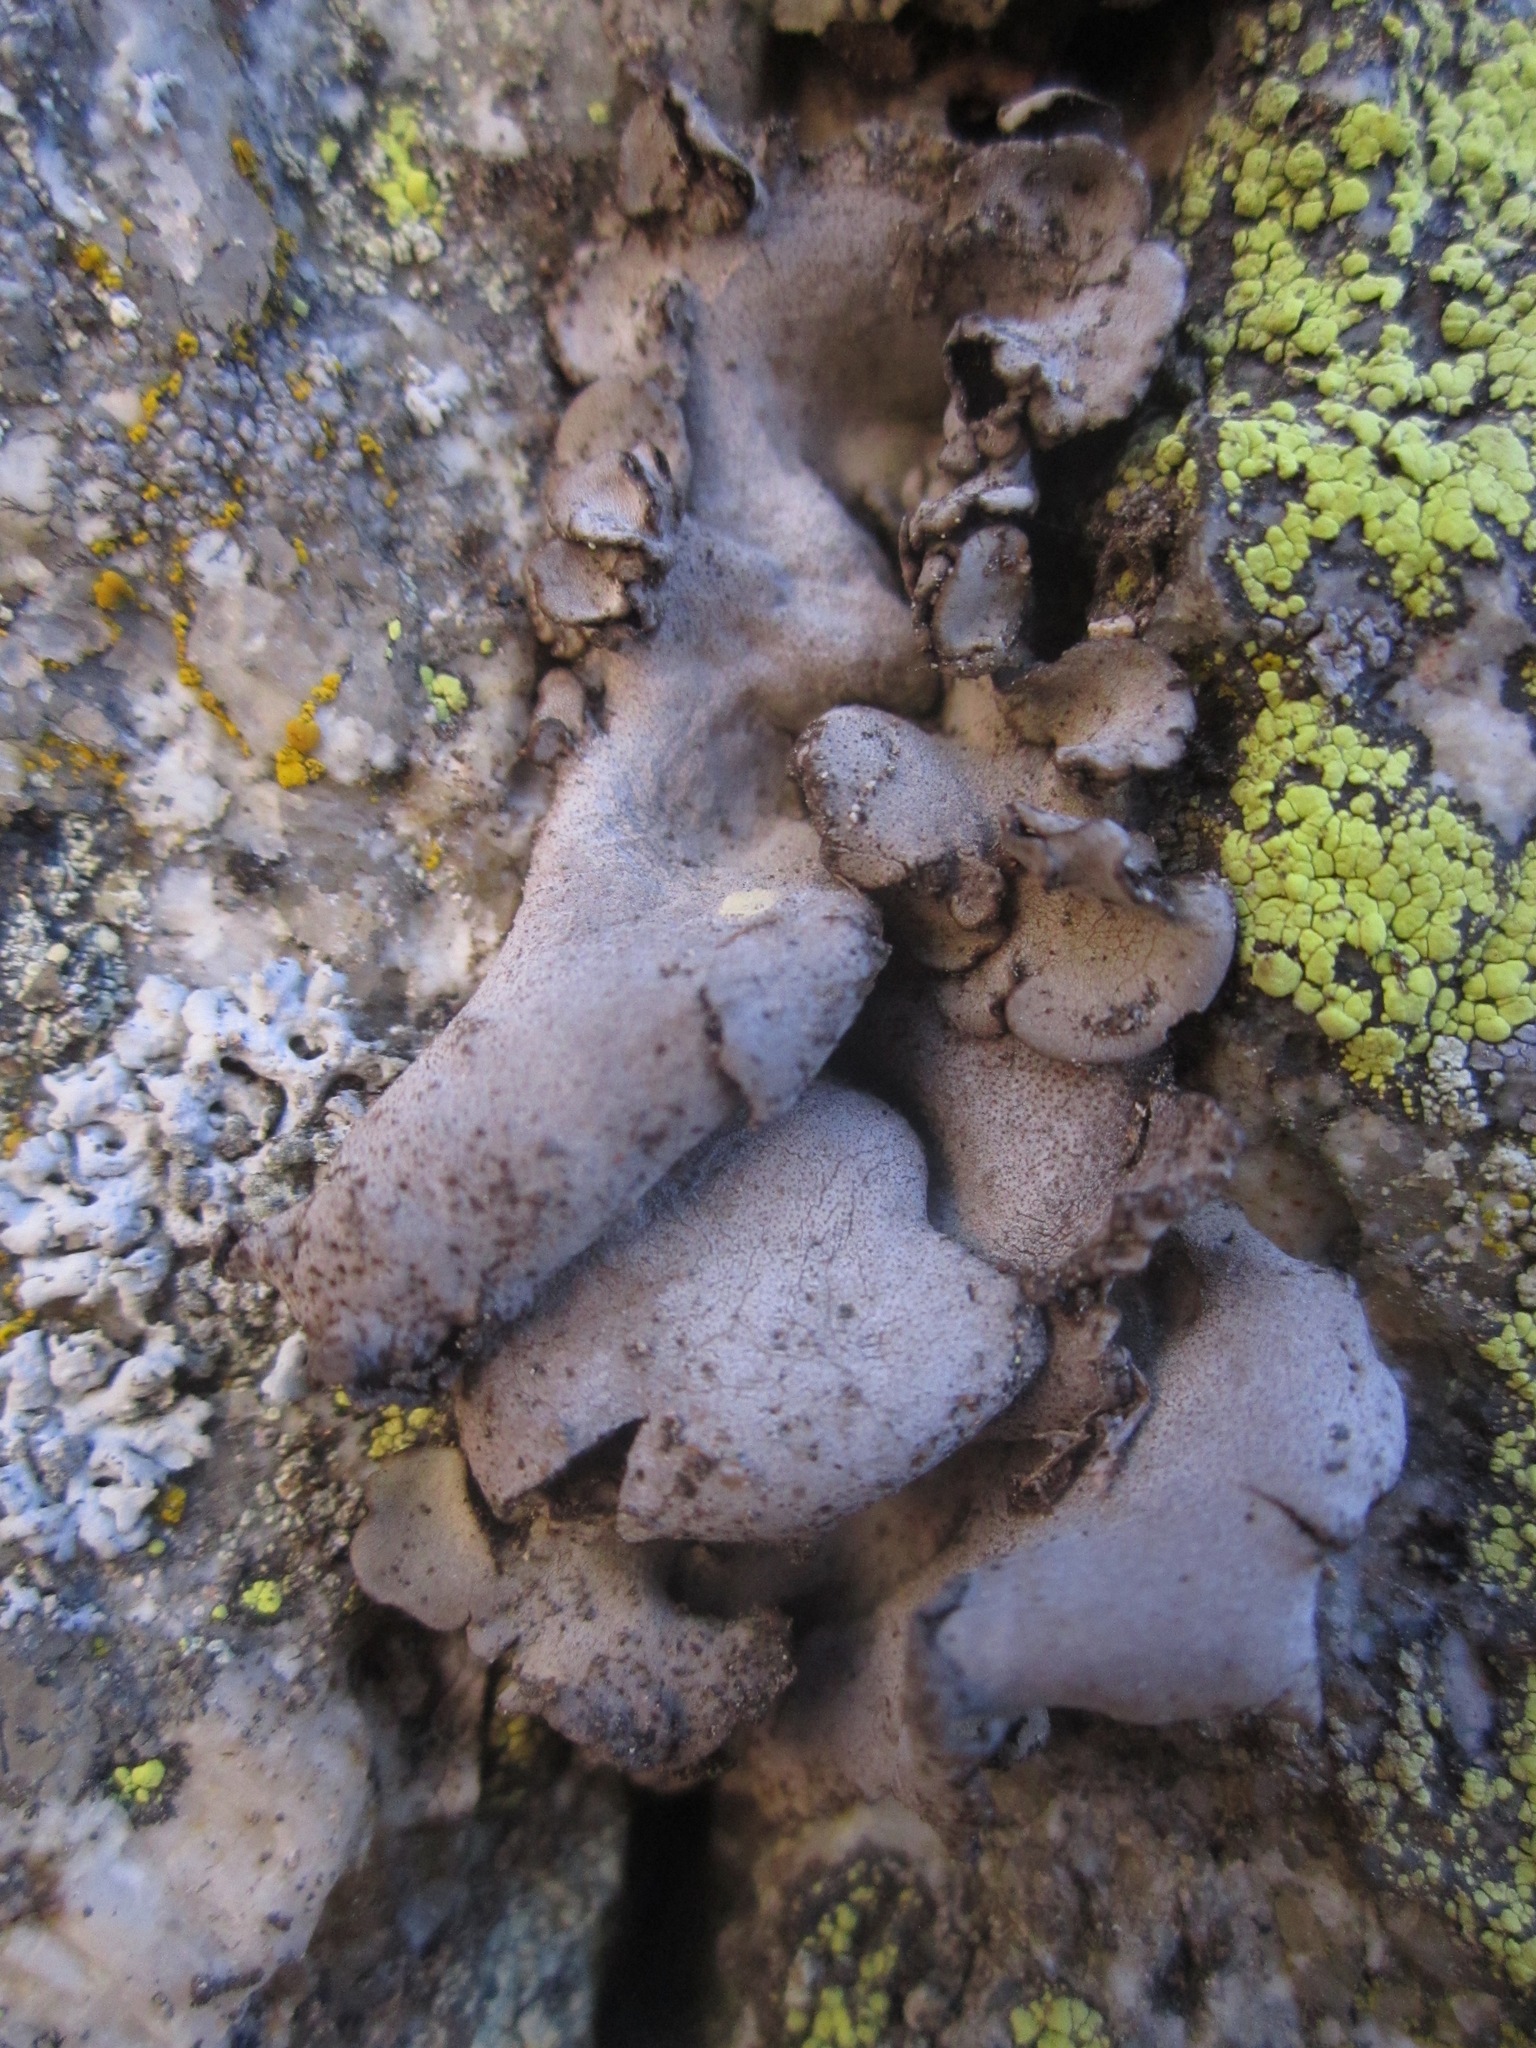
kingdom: Fungi
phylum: Ascomycota
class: Eurotiomycetes
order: Verrucariales
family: Verrucariaceae
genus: Dermatocarpon
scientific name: Dermatocarpon reticulatum
